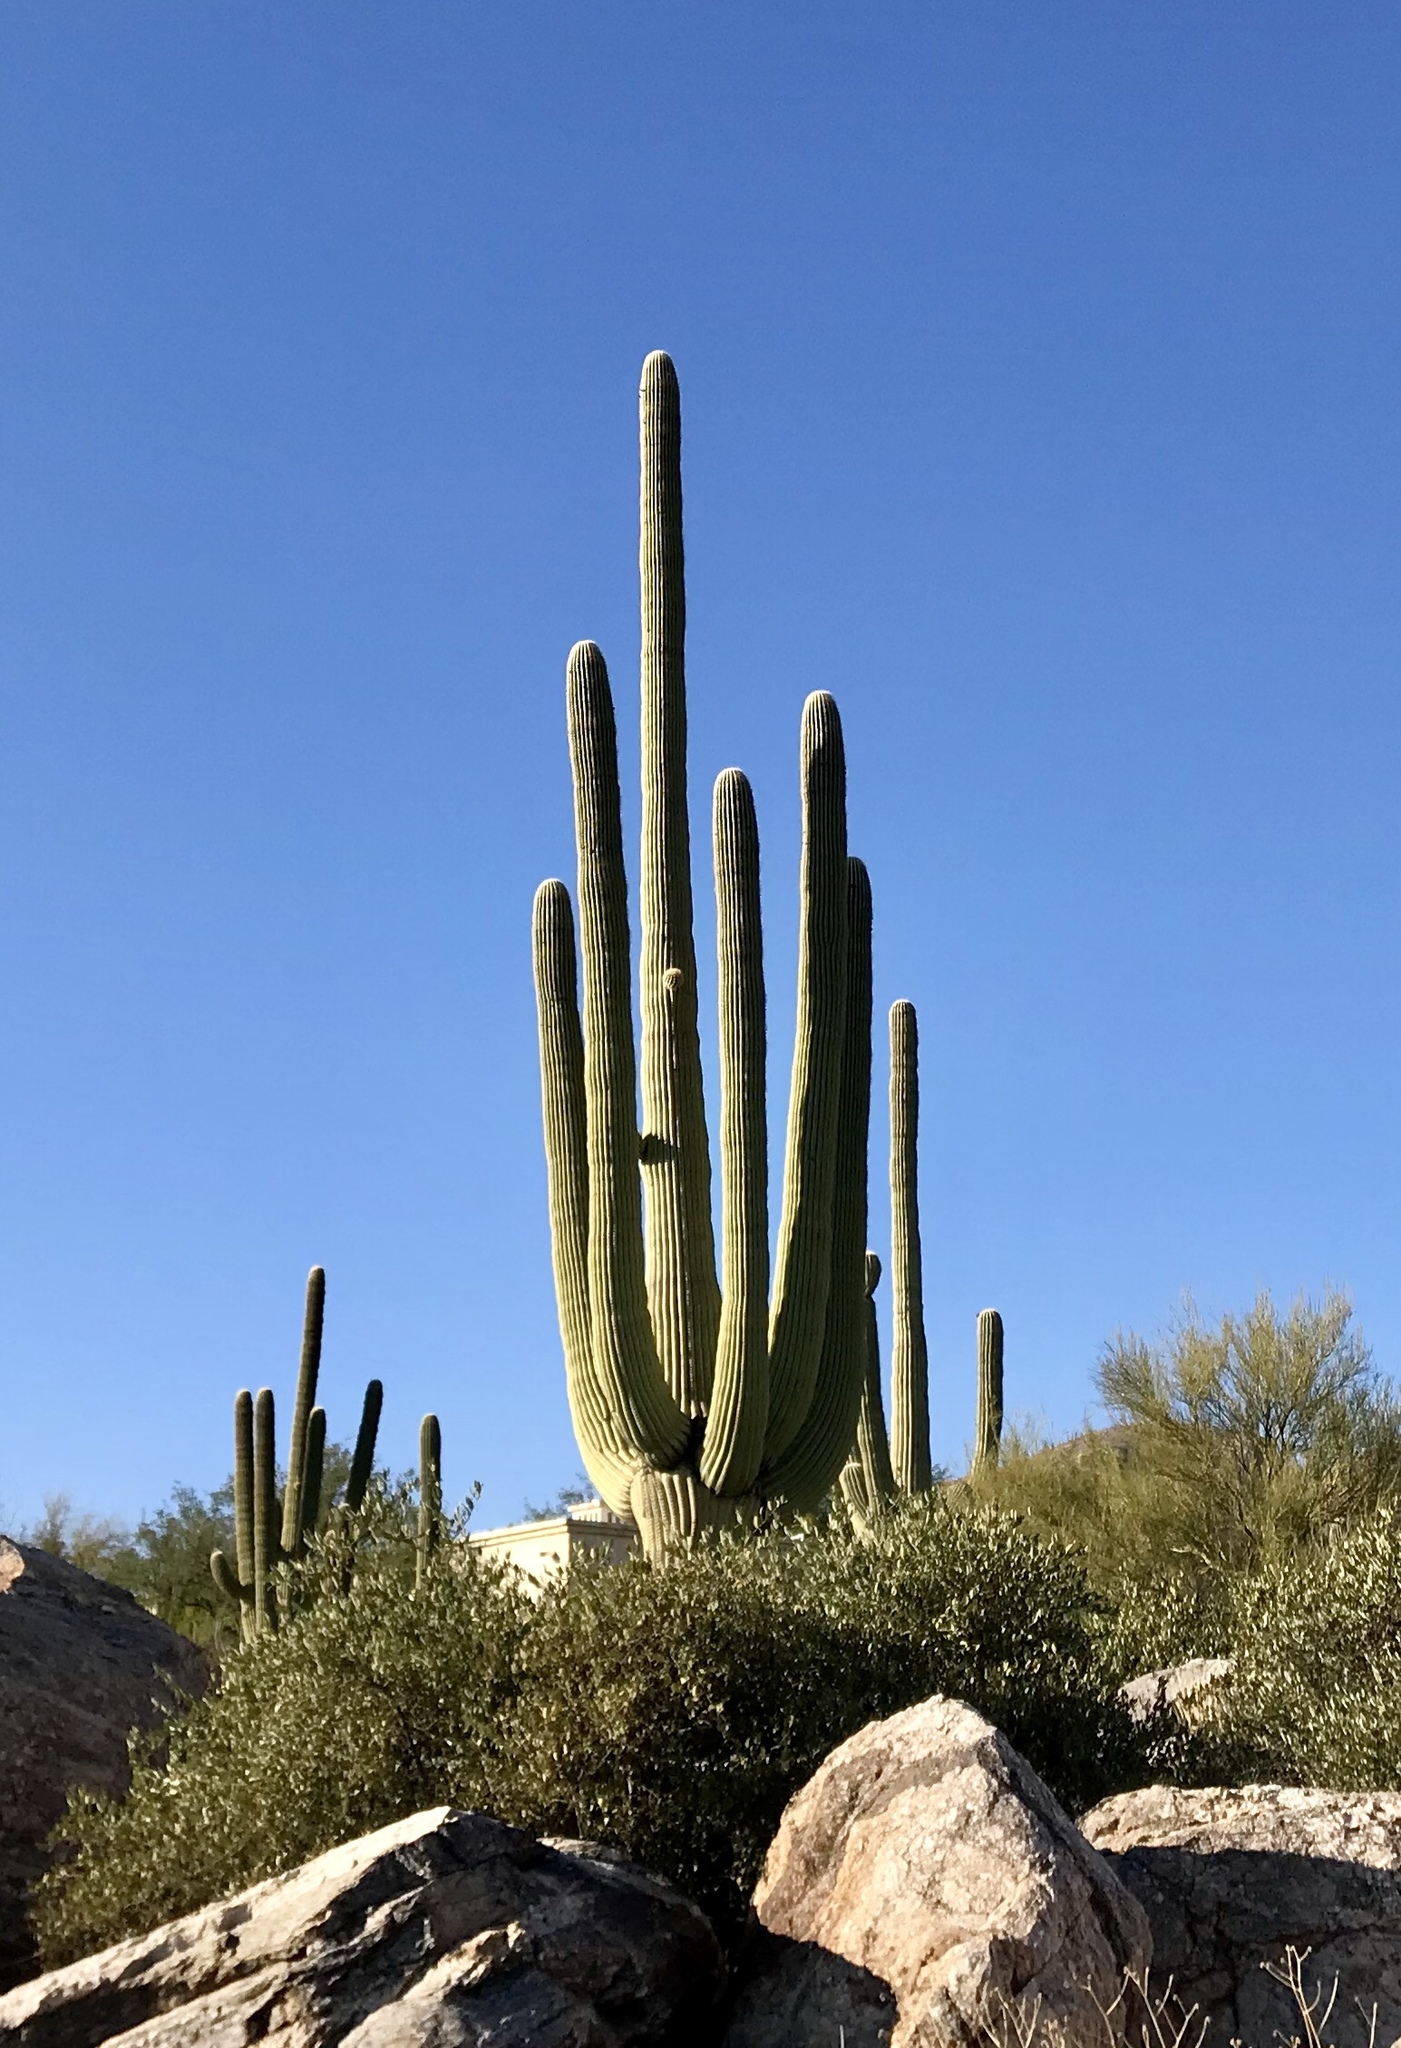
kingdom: Plantae
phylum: Tracheophyta
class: Magnoliopsida
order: Caryophyllales
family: Cactaceae
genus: Carnegiea
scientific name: Carnegiea gigantea
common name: Saguaro
